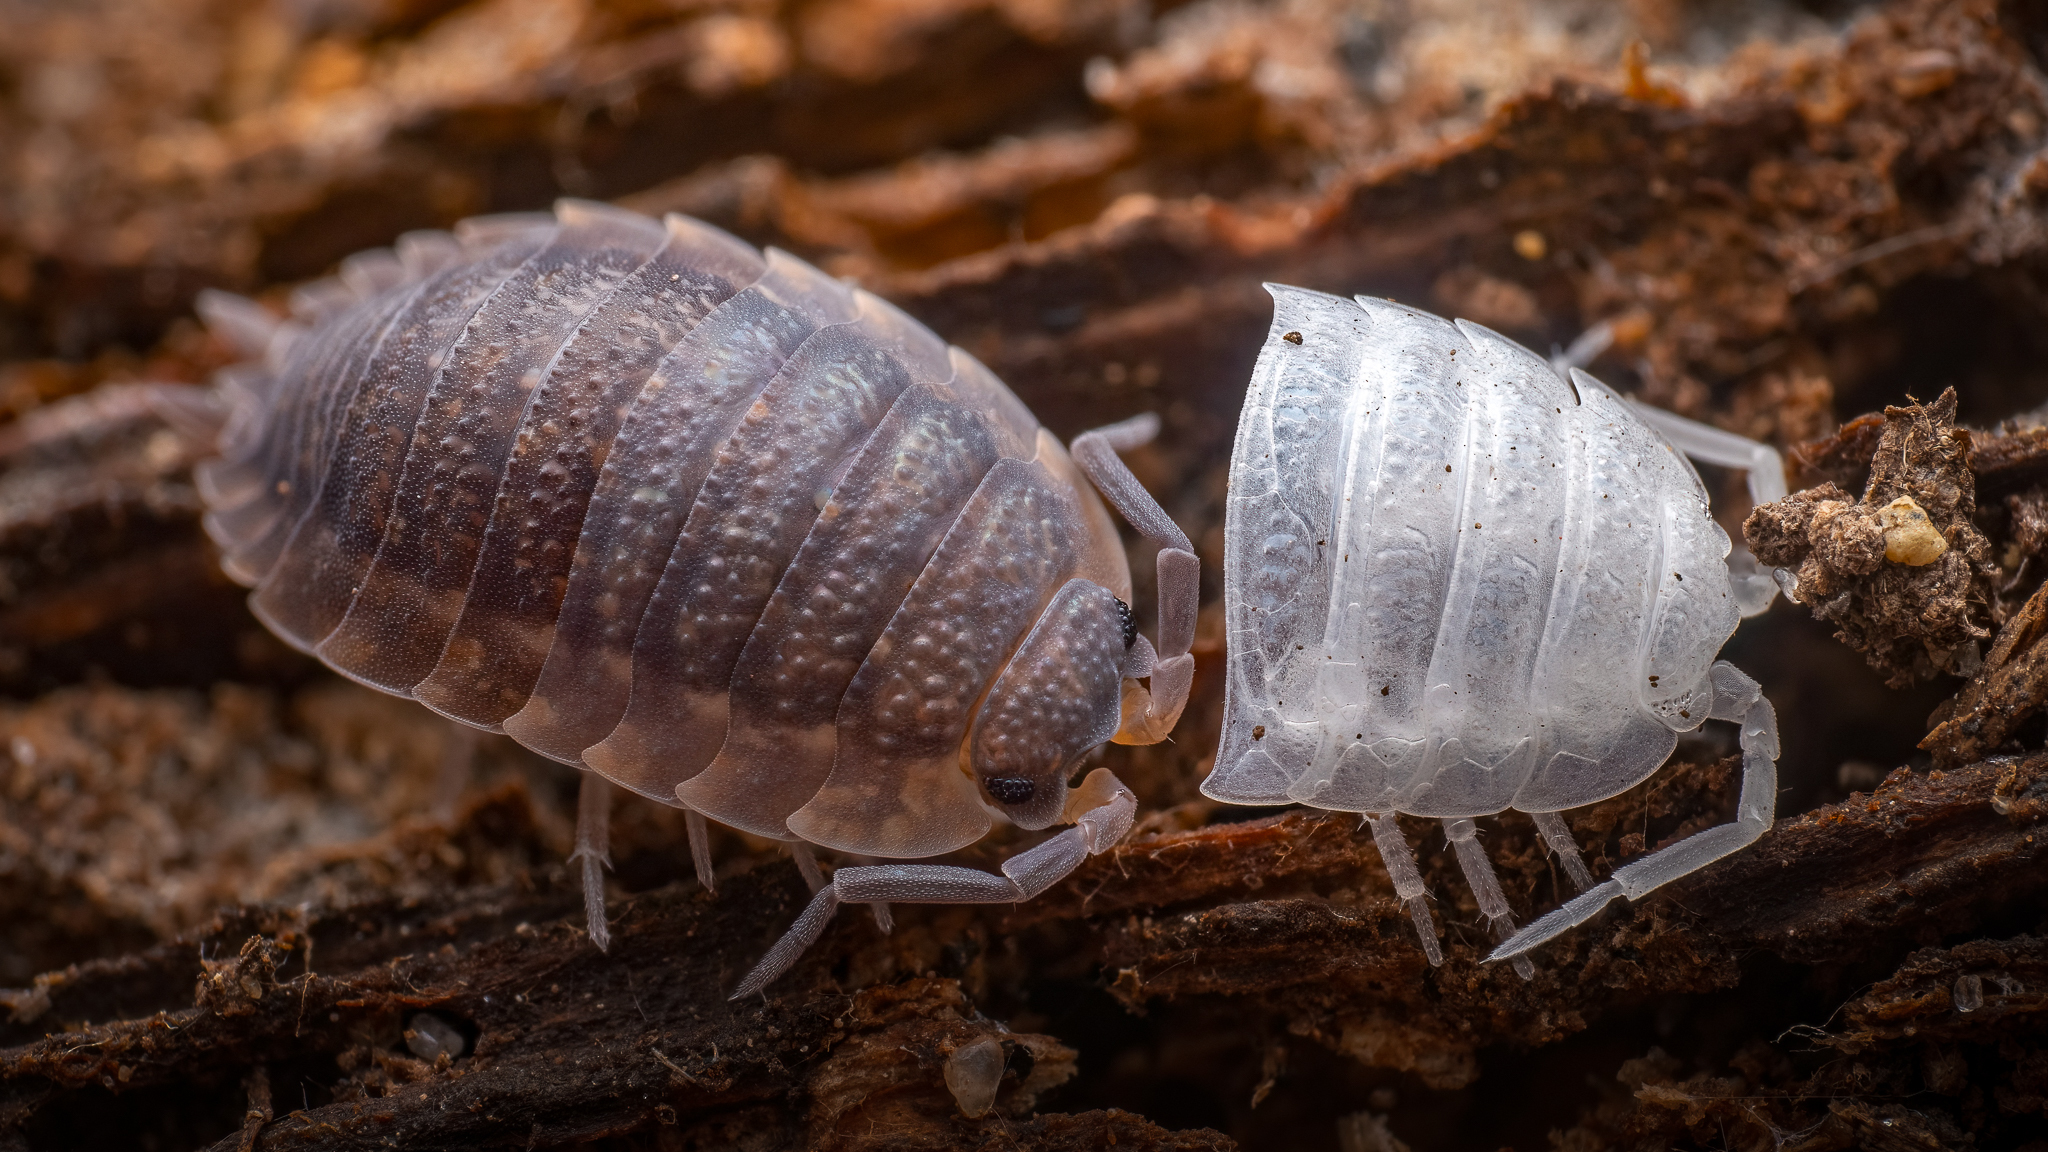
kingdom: Animalia
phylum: Arthropoda
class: Malacostraca
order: Isopoda
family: Porcellionidae
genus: Porcellio
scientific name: Porcellio scaber
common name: Common rough woodlouse
